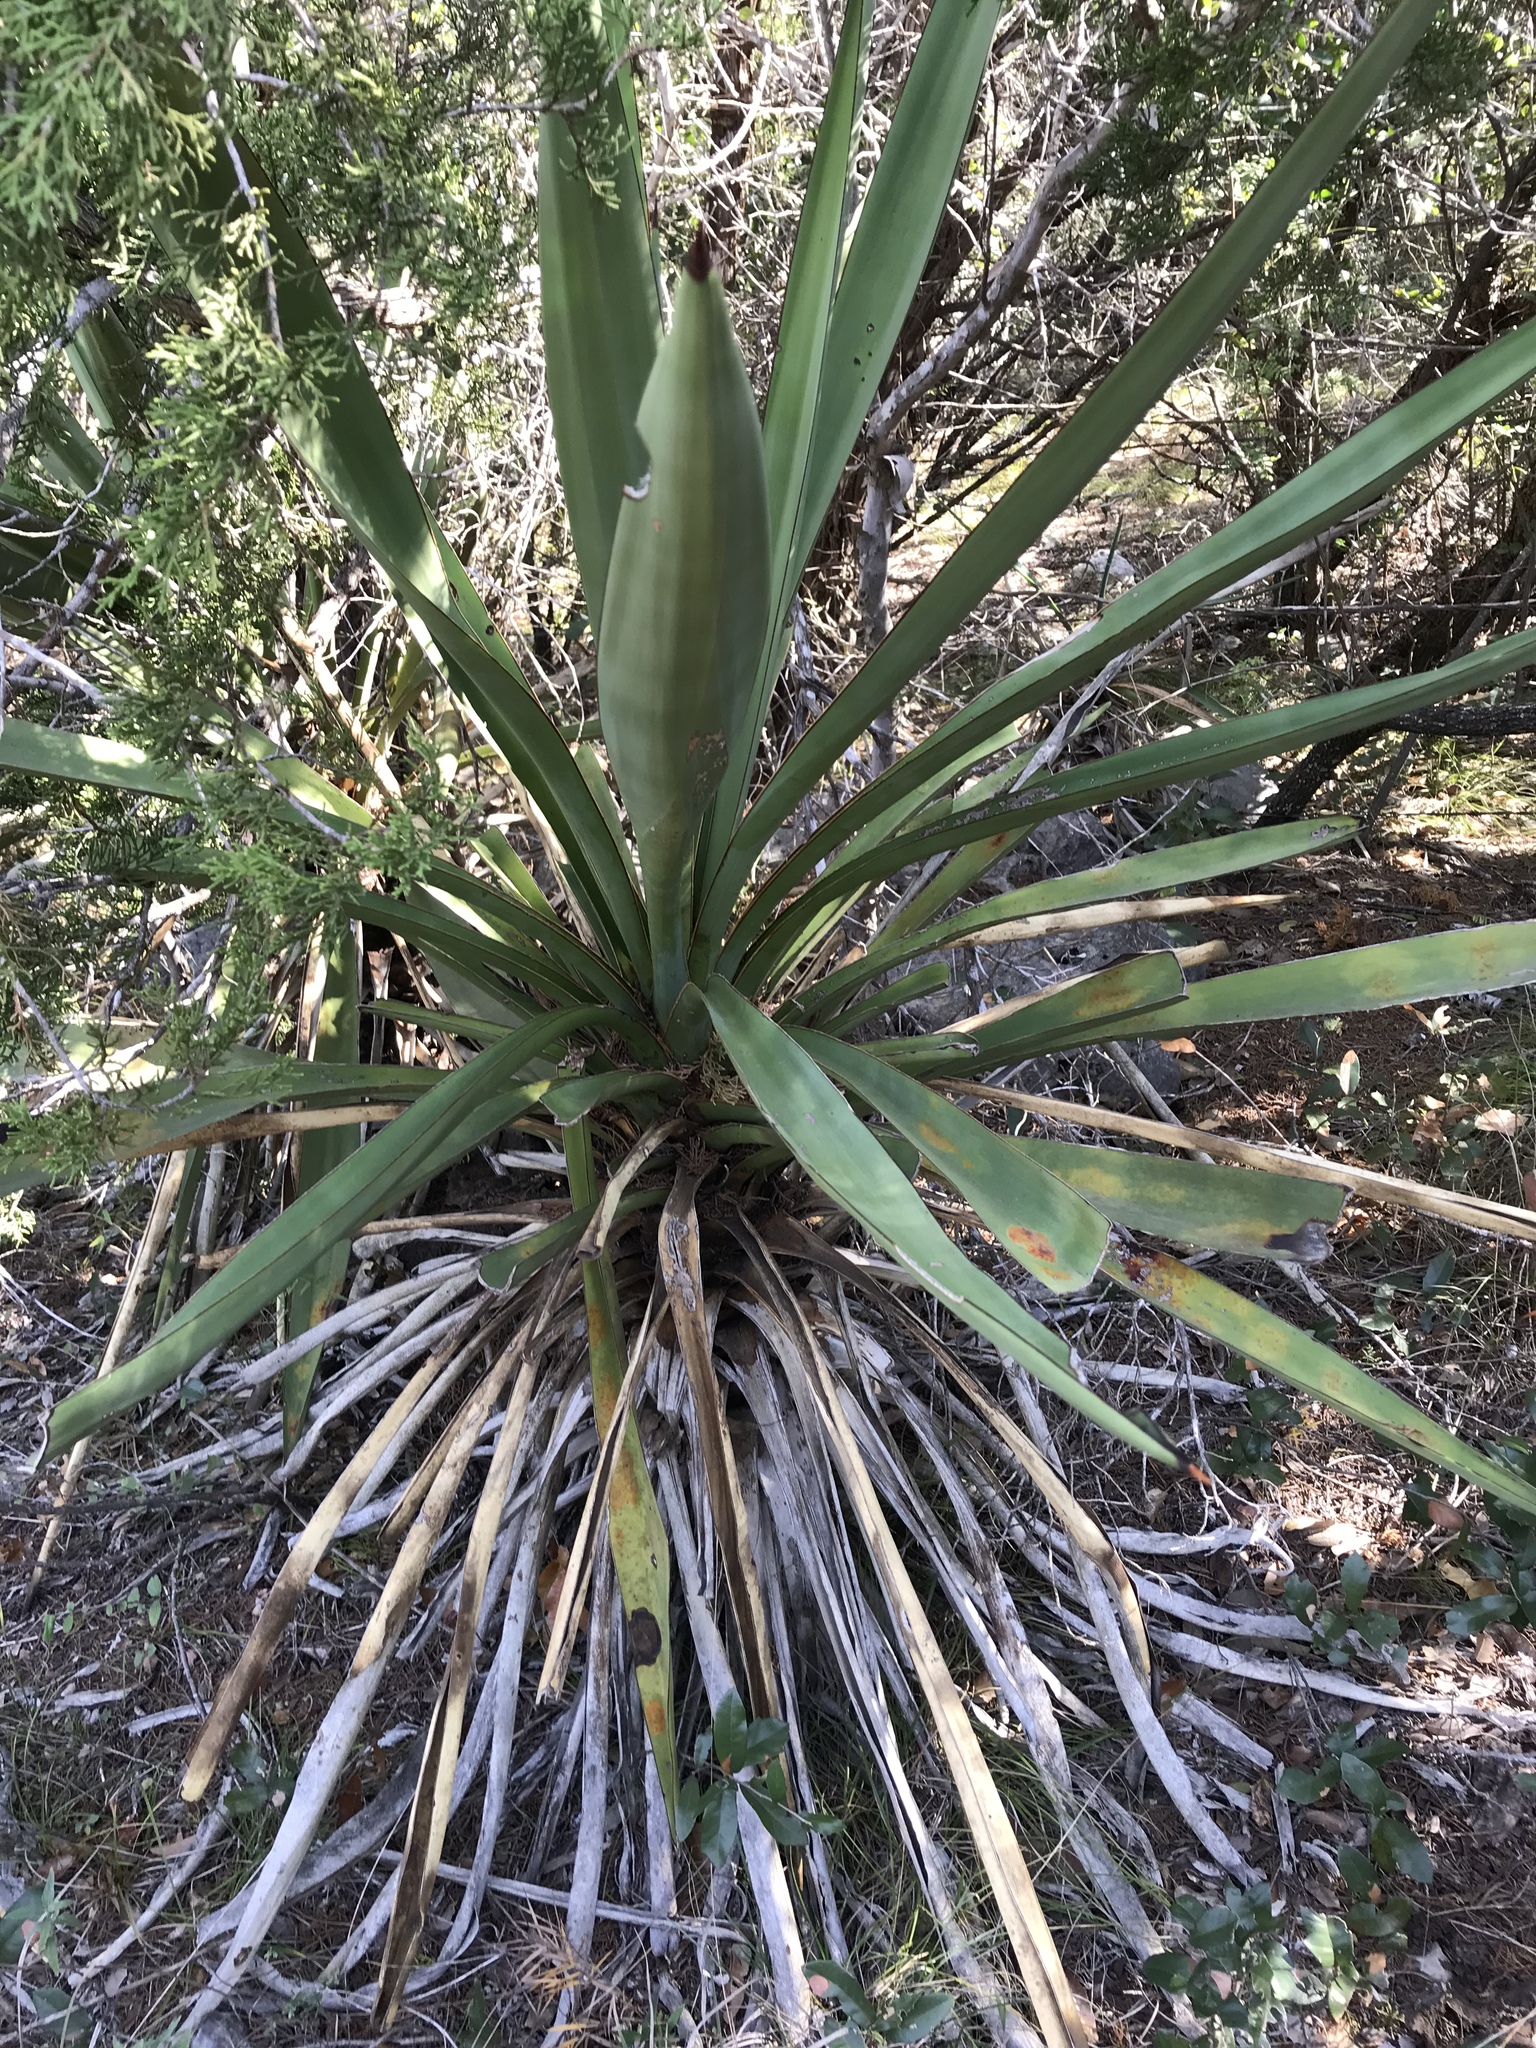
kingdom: Plantae
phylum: Tracheophyta
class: Liliopsida
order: Asparagales
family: Asparagaceae
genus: Yucca
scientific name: Yucca treculiana
